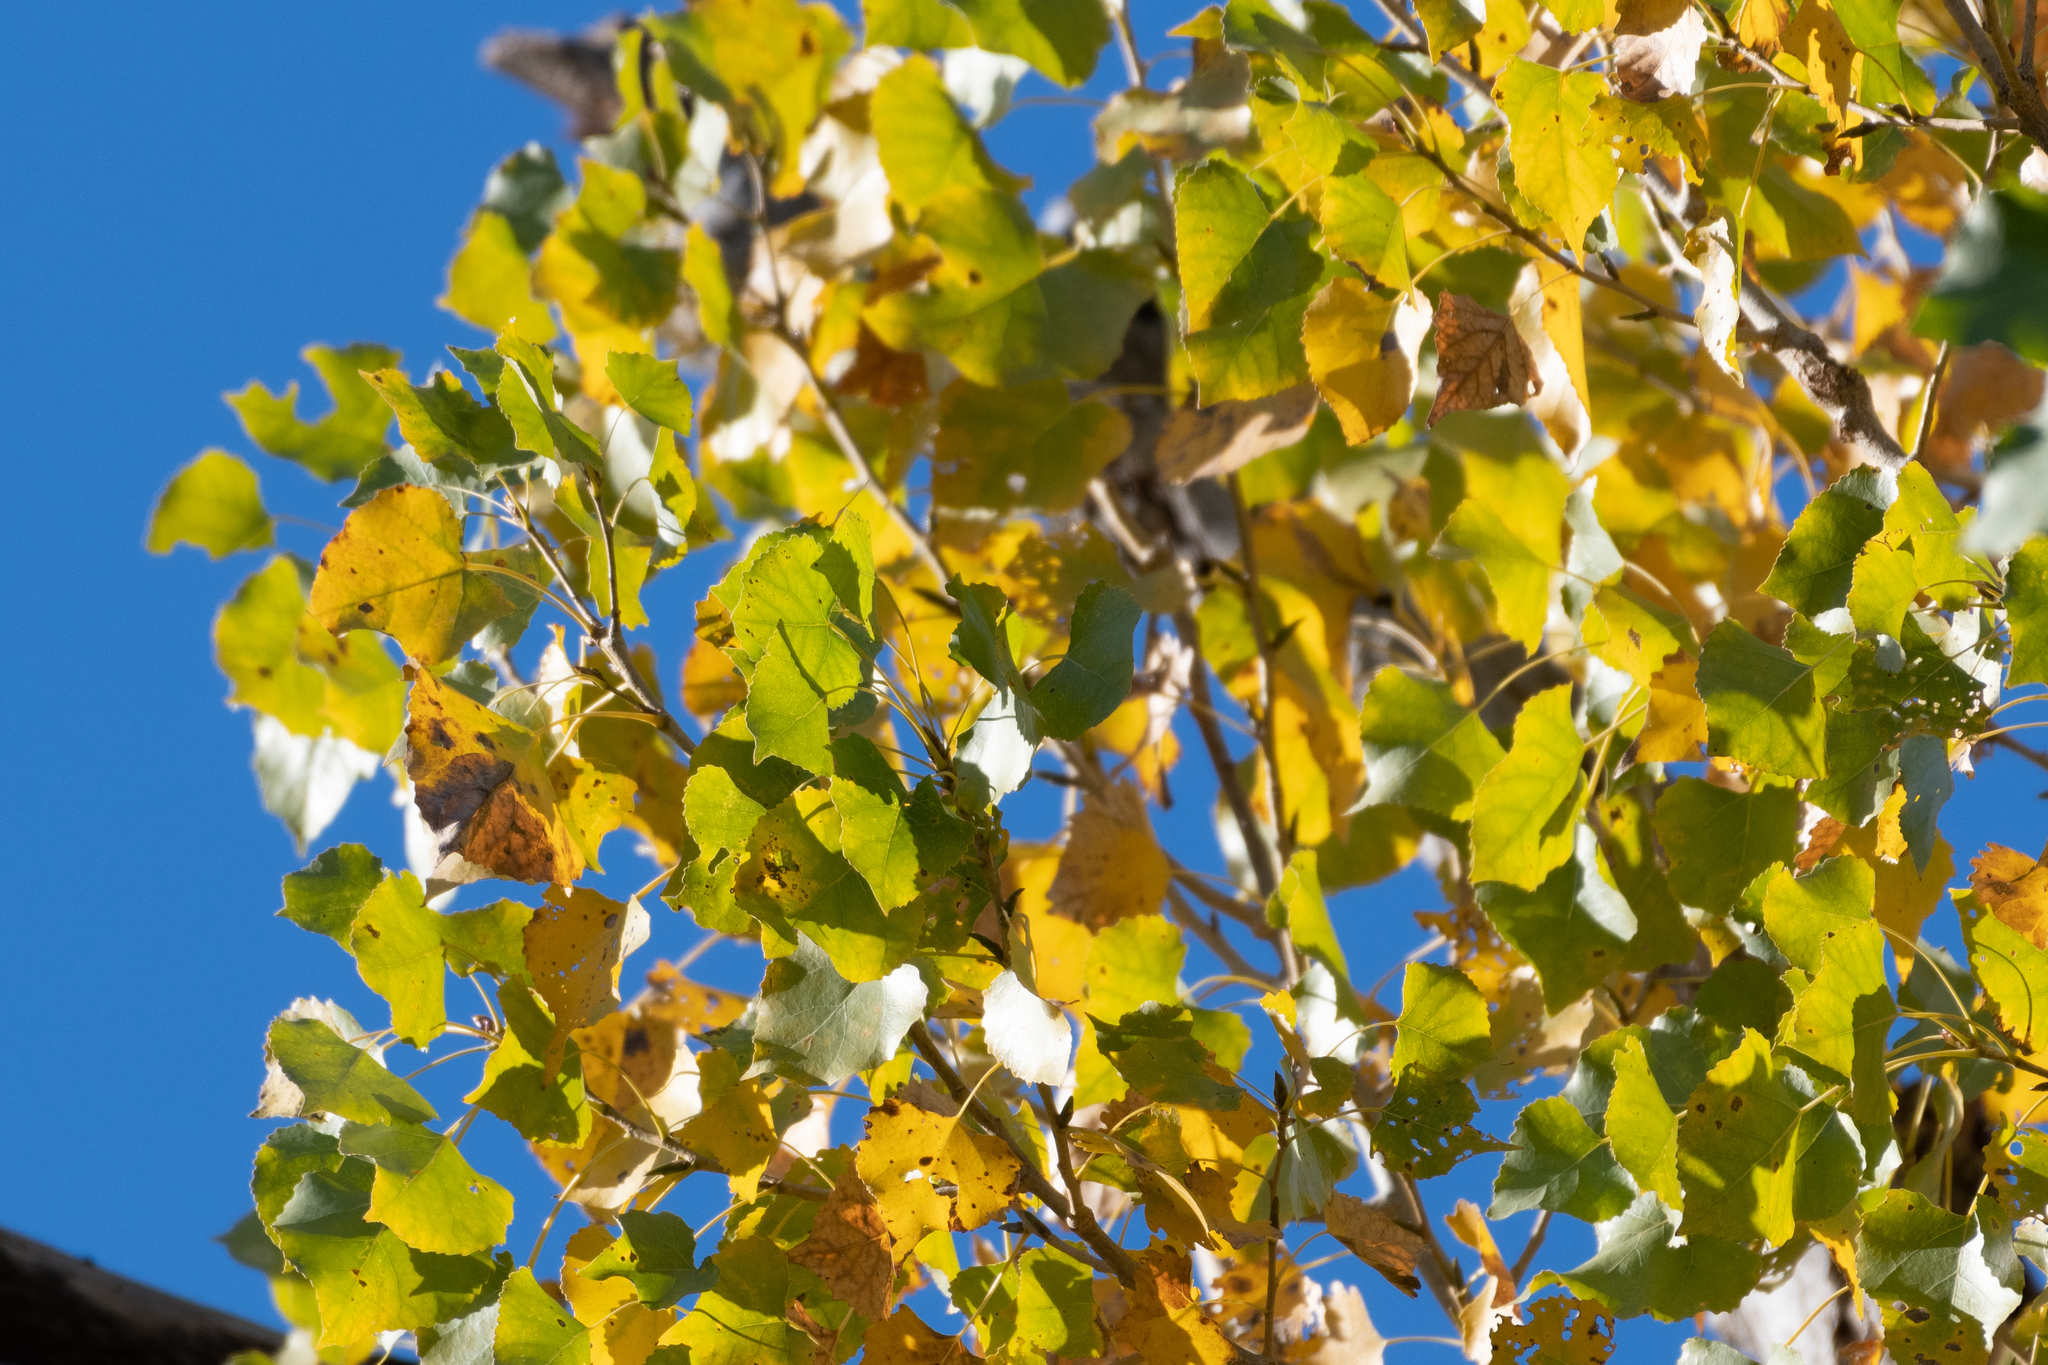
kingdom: Plantae
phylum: Tracheophyta
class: Magnoliopsida
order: Malpighiales
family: Salicaceae
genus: Populus
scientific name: Populus fremontii
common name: Fremont's cottonwood
